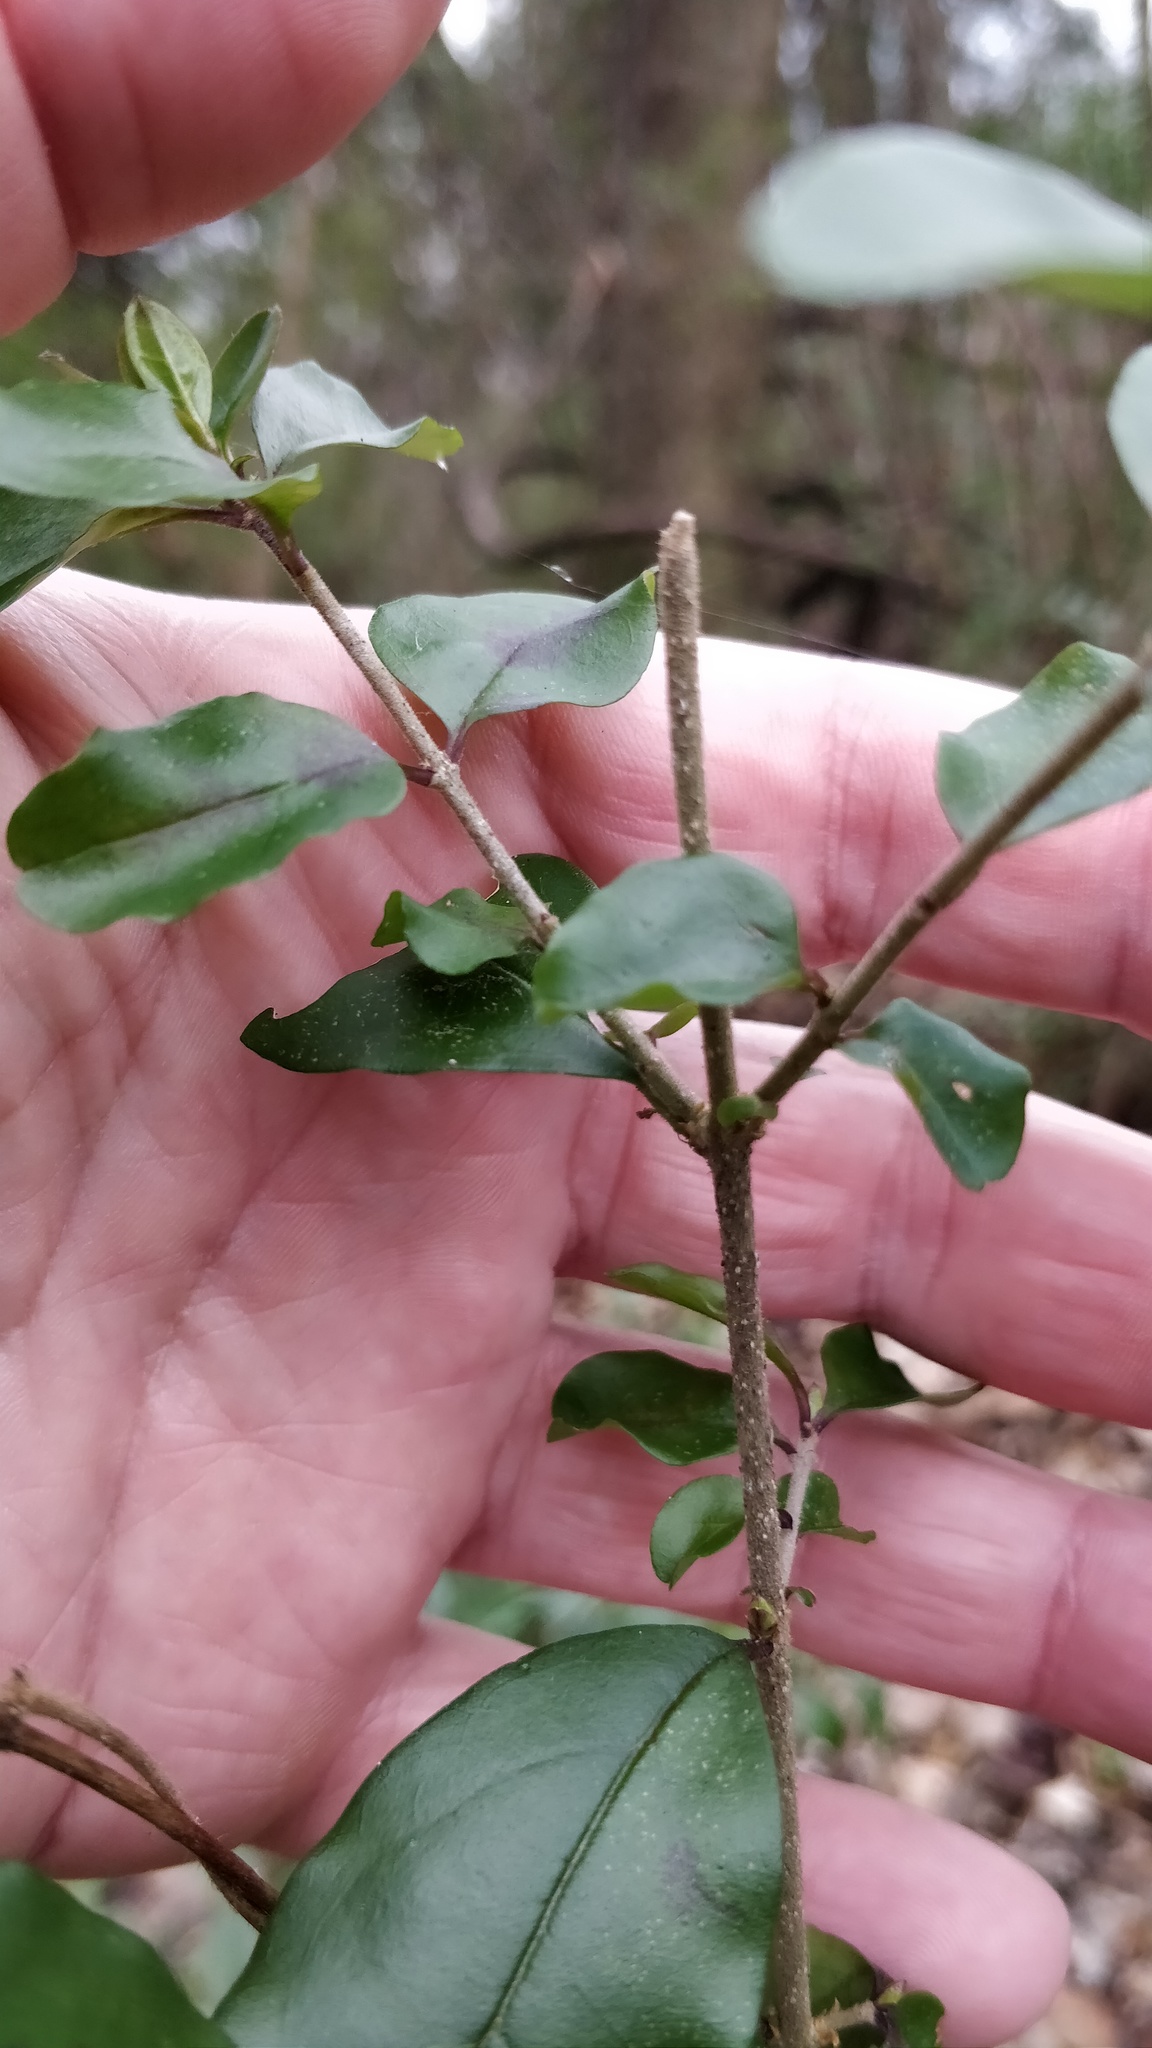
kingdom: Plantae
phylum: Tracheophyta
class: Magnoliopsida
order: Lamiales
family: Oleaceae
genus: Ligustrum
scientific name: Ligustrum sinense
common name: Chinese privet
